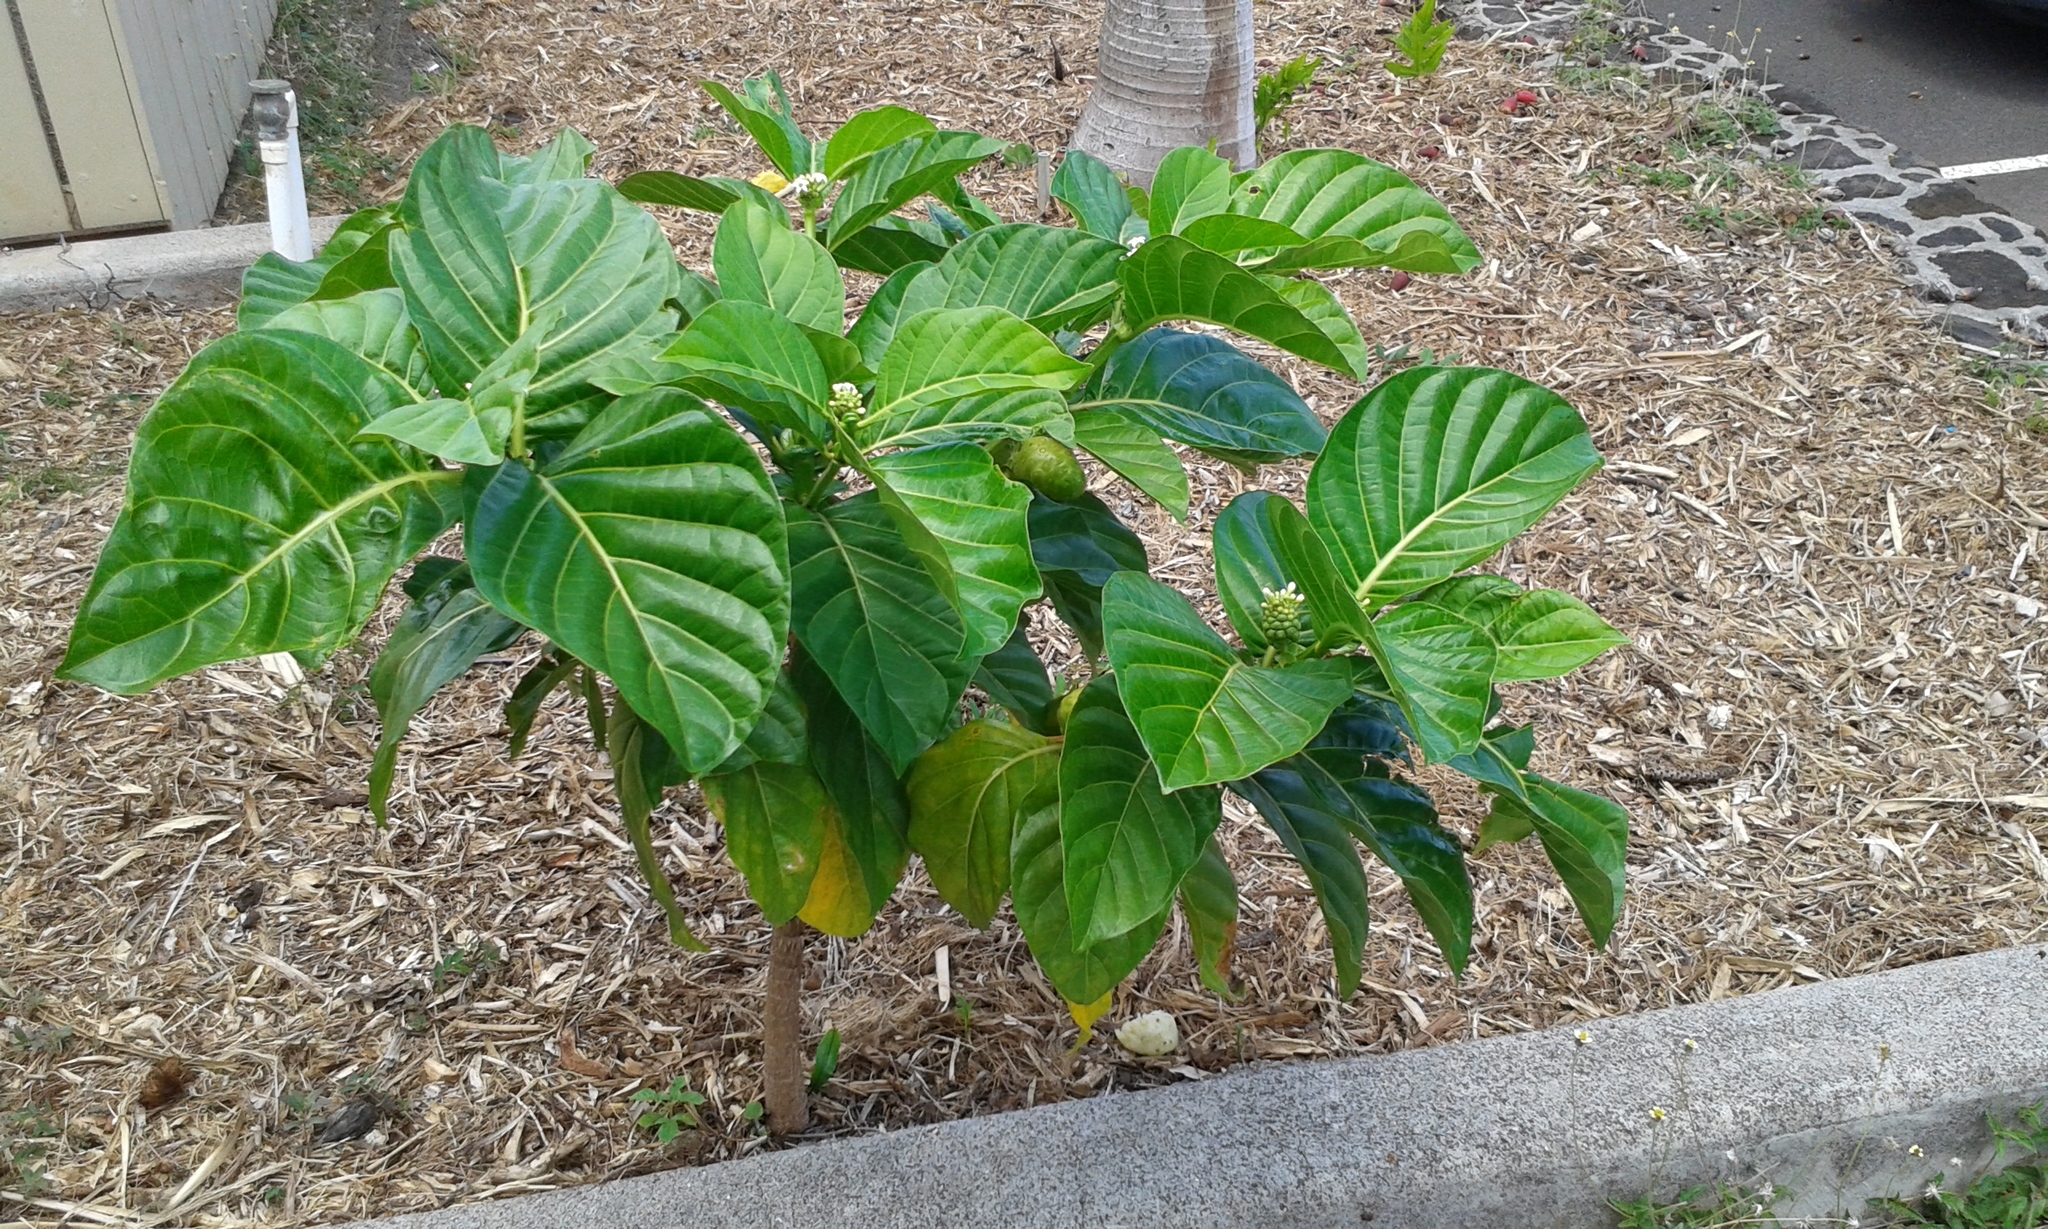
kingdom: Plantae
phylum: Tracheophyta
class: Magnoliopsida
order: Gentianales
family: Rubiaceae
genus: Morinda
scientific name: Morinda citrifolia
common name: Indian-mulberry
